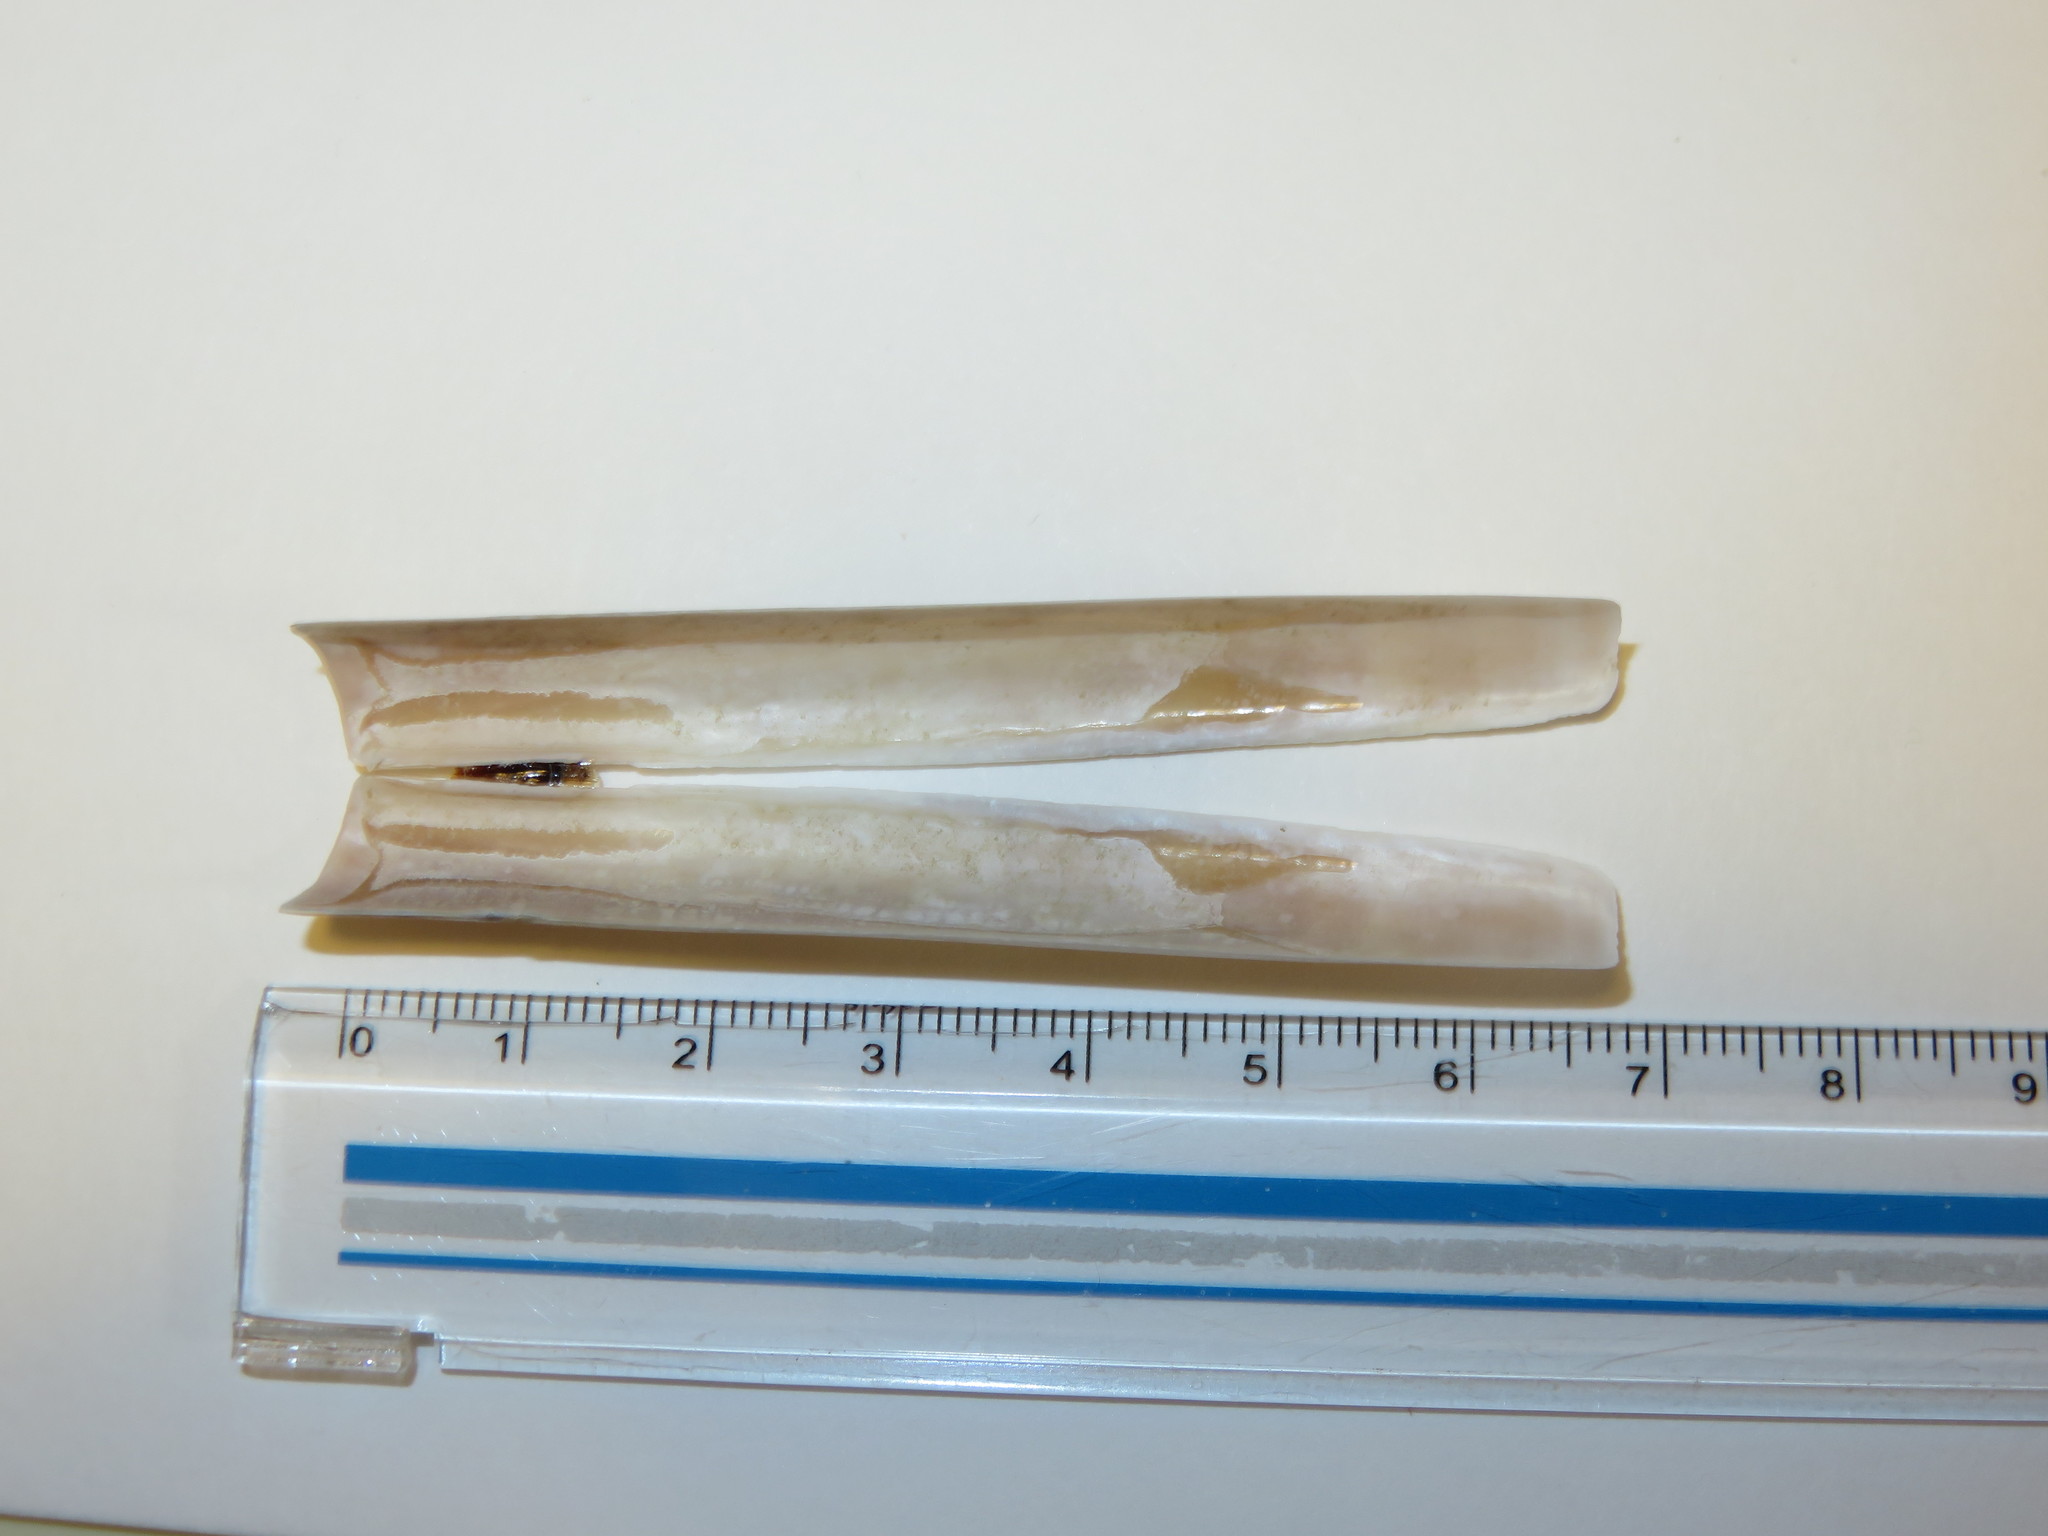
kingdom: Animalia
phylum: Mollusca
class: Bivalvia
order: Adapedonta
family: Solenidae
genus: Solen
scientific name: Solen strictus
